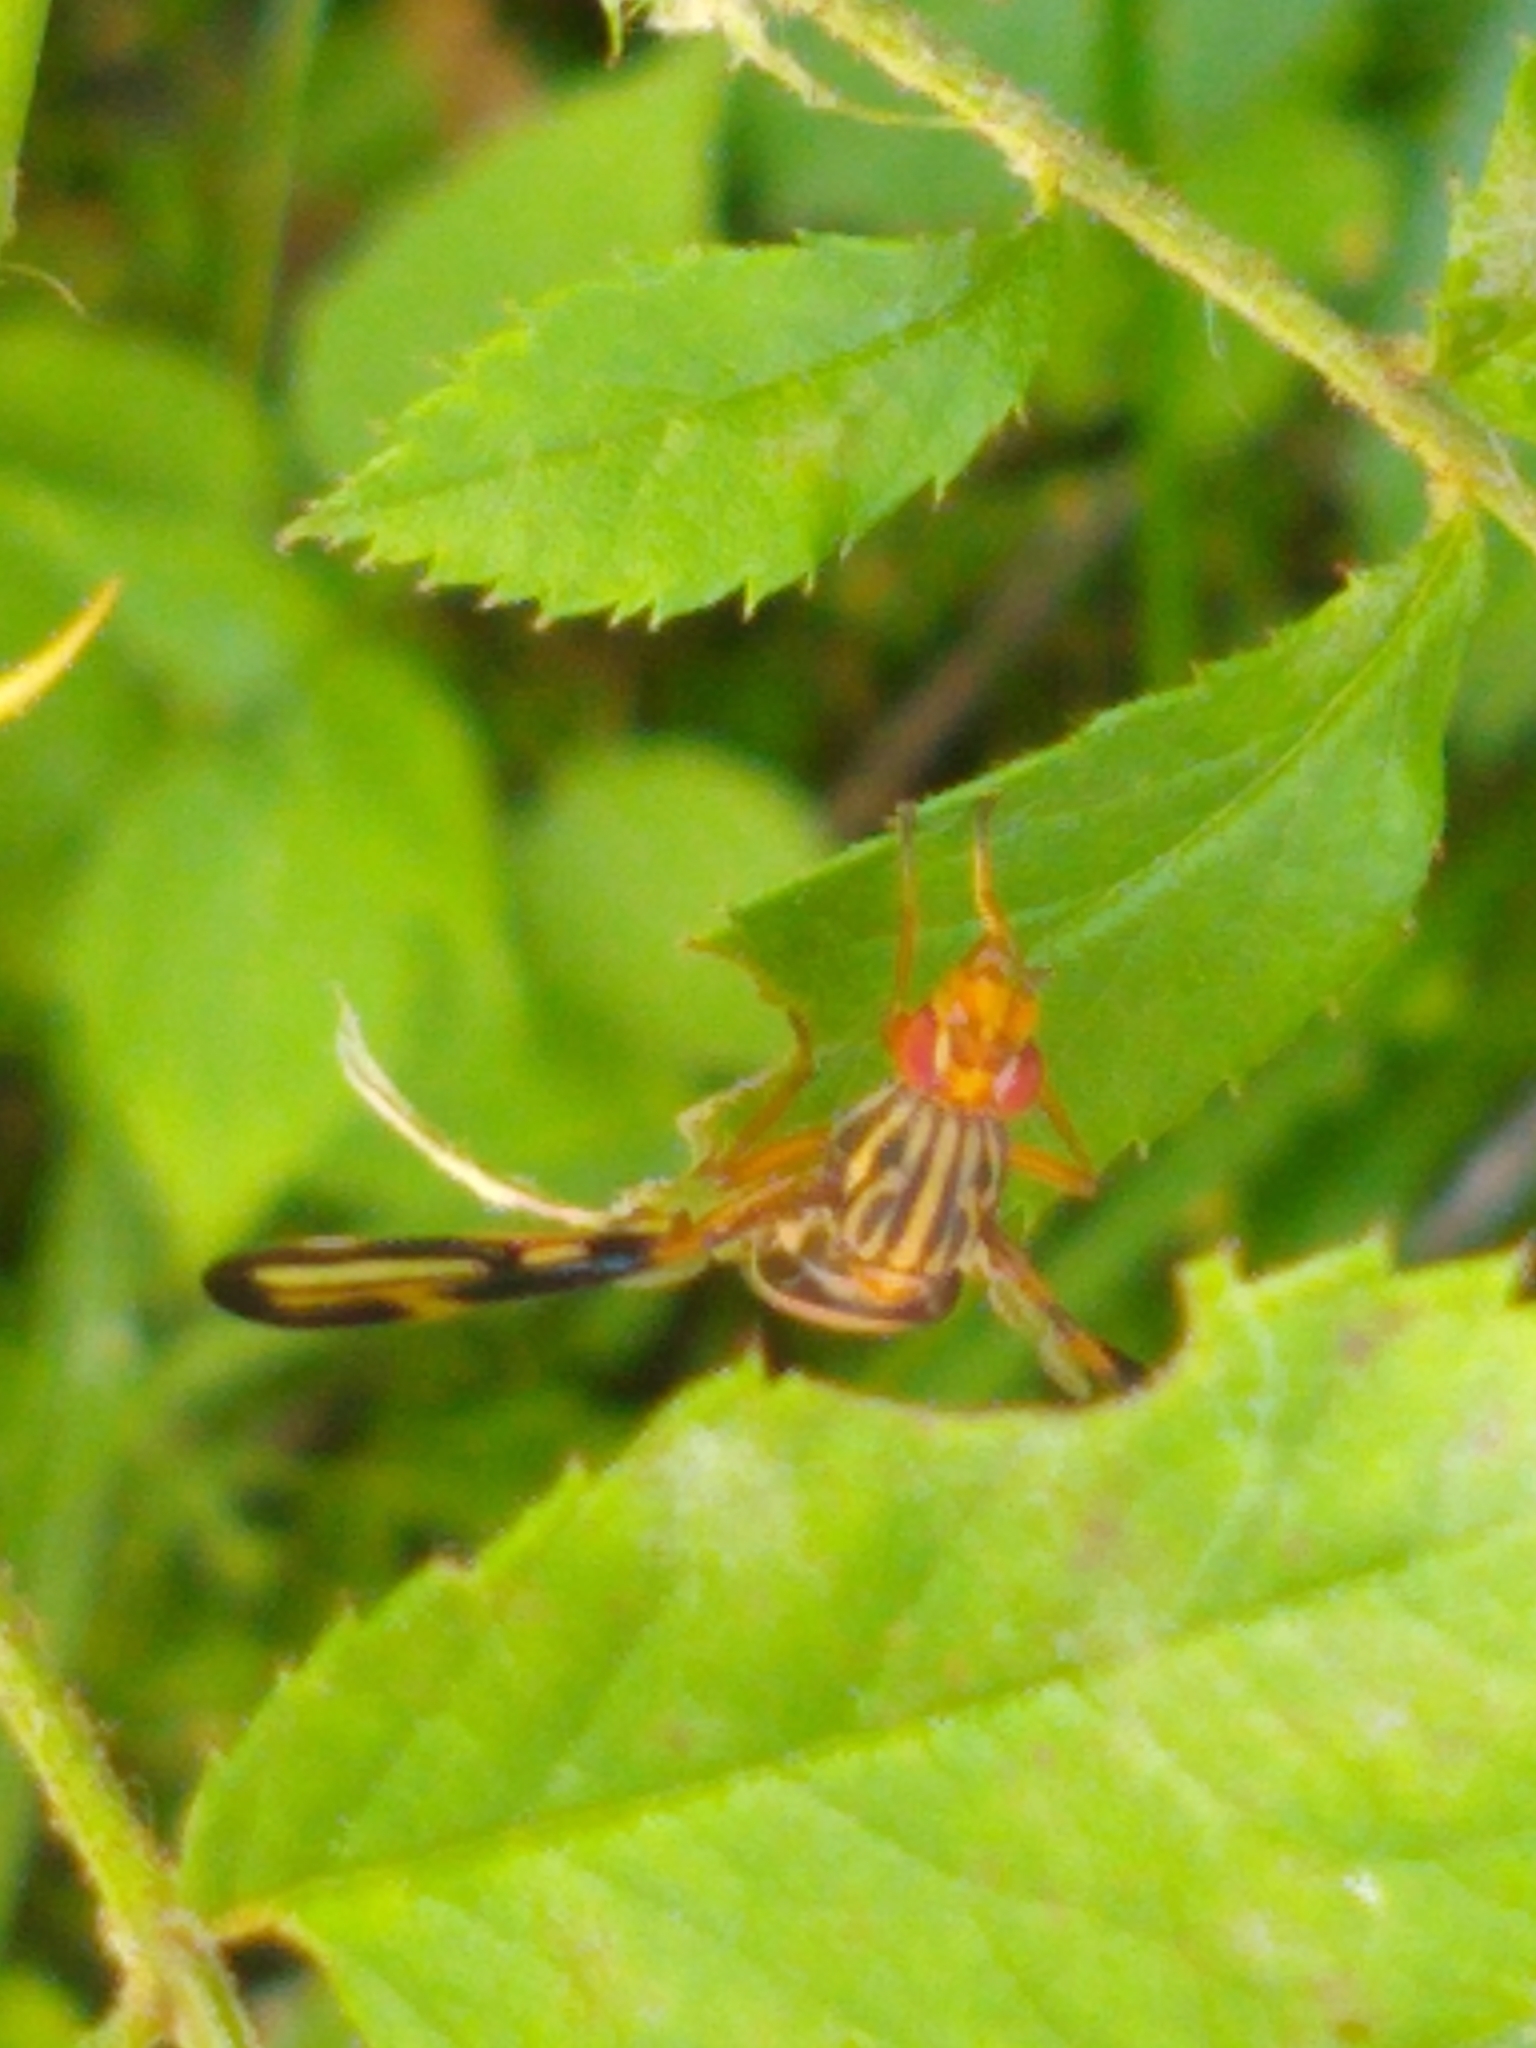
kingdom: Animalia
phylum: Arthropoda
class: Insecta
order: Diptera
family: Ulidiidae
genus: Idana
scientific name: Idana marginata
